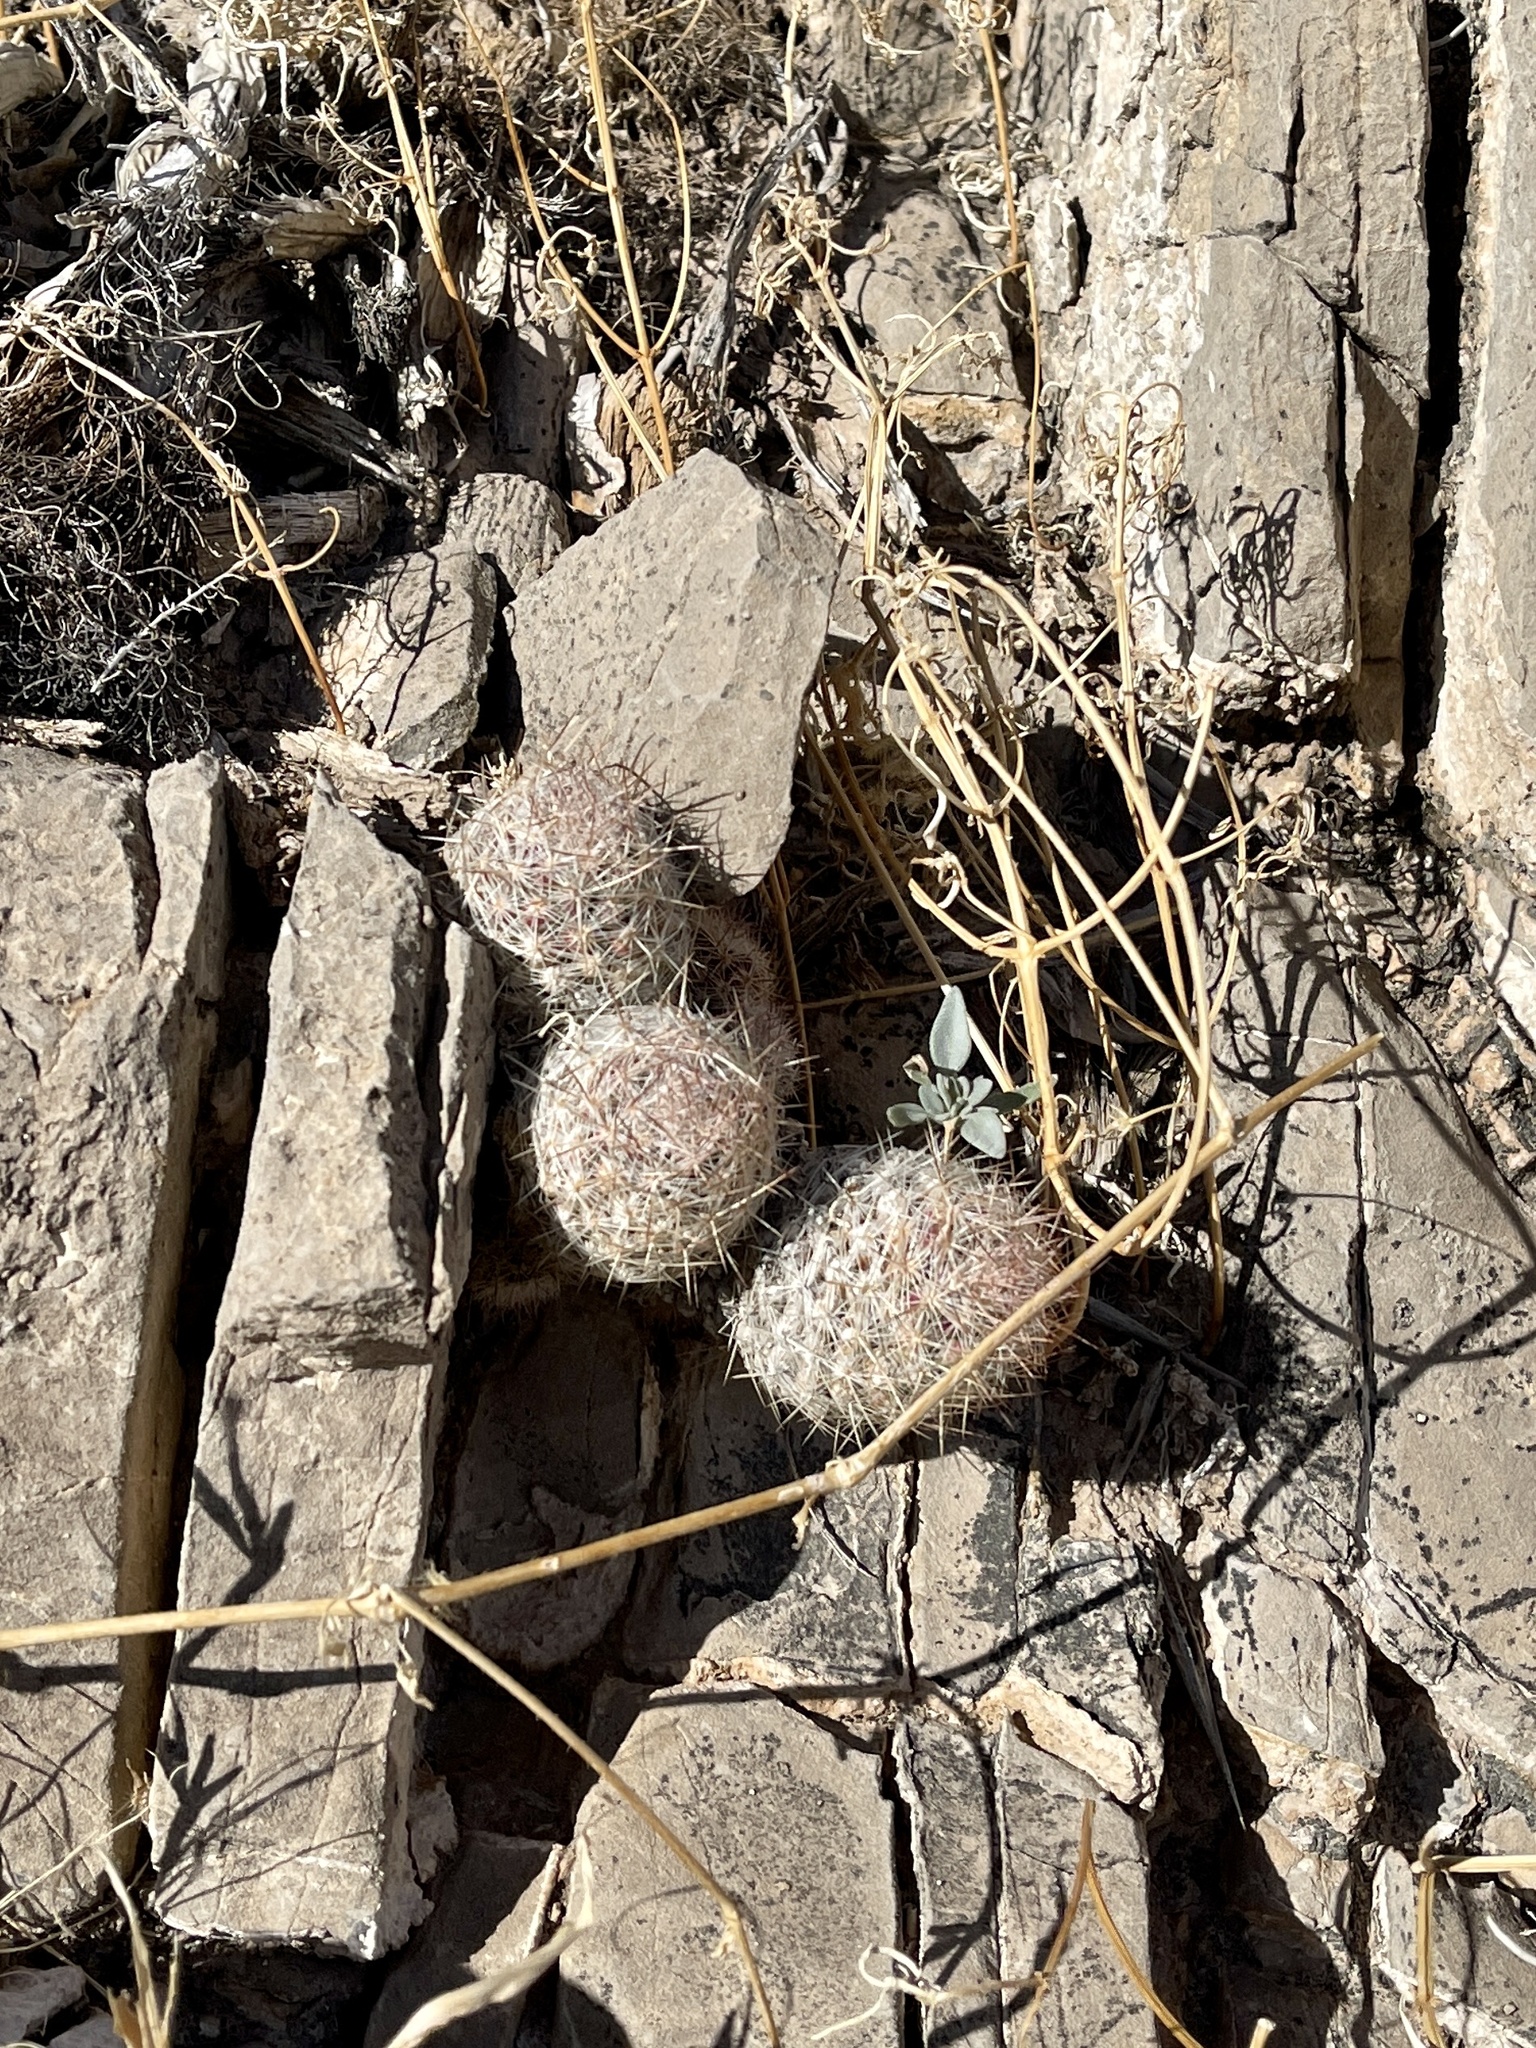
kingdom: Plantae
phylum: Tracheophyta
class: Magnoliopsida
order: Caryophyllales
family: Cactaceae
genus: Pelecyphora
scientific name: Pelecyphora tuberculosa
